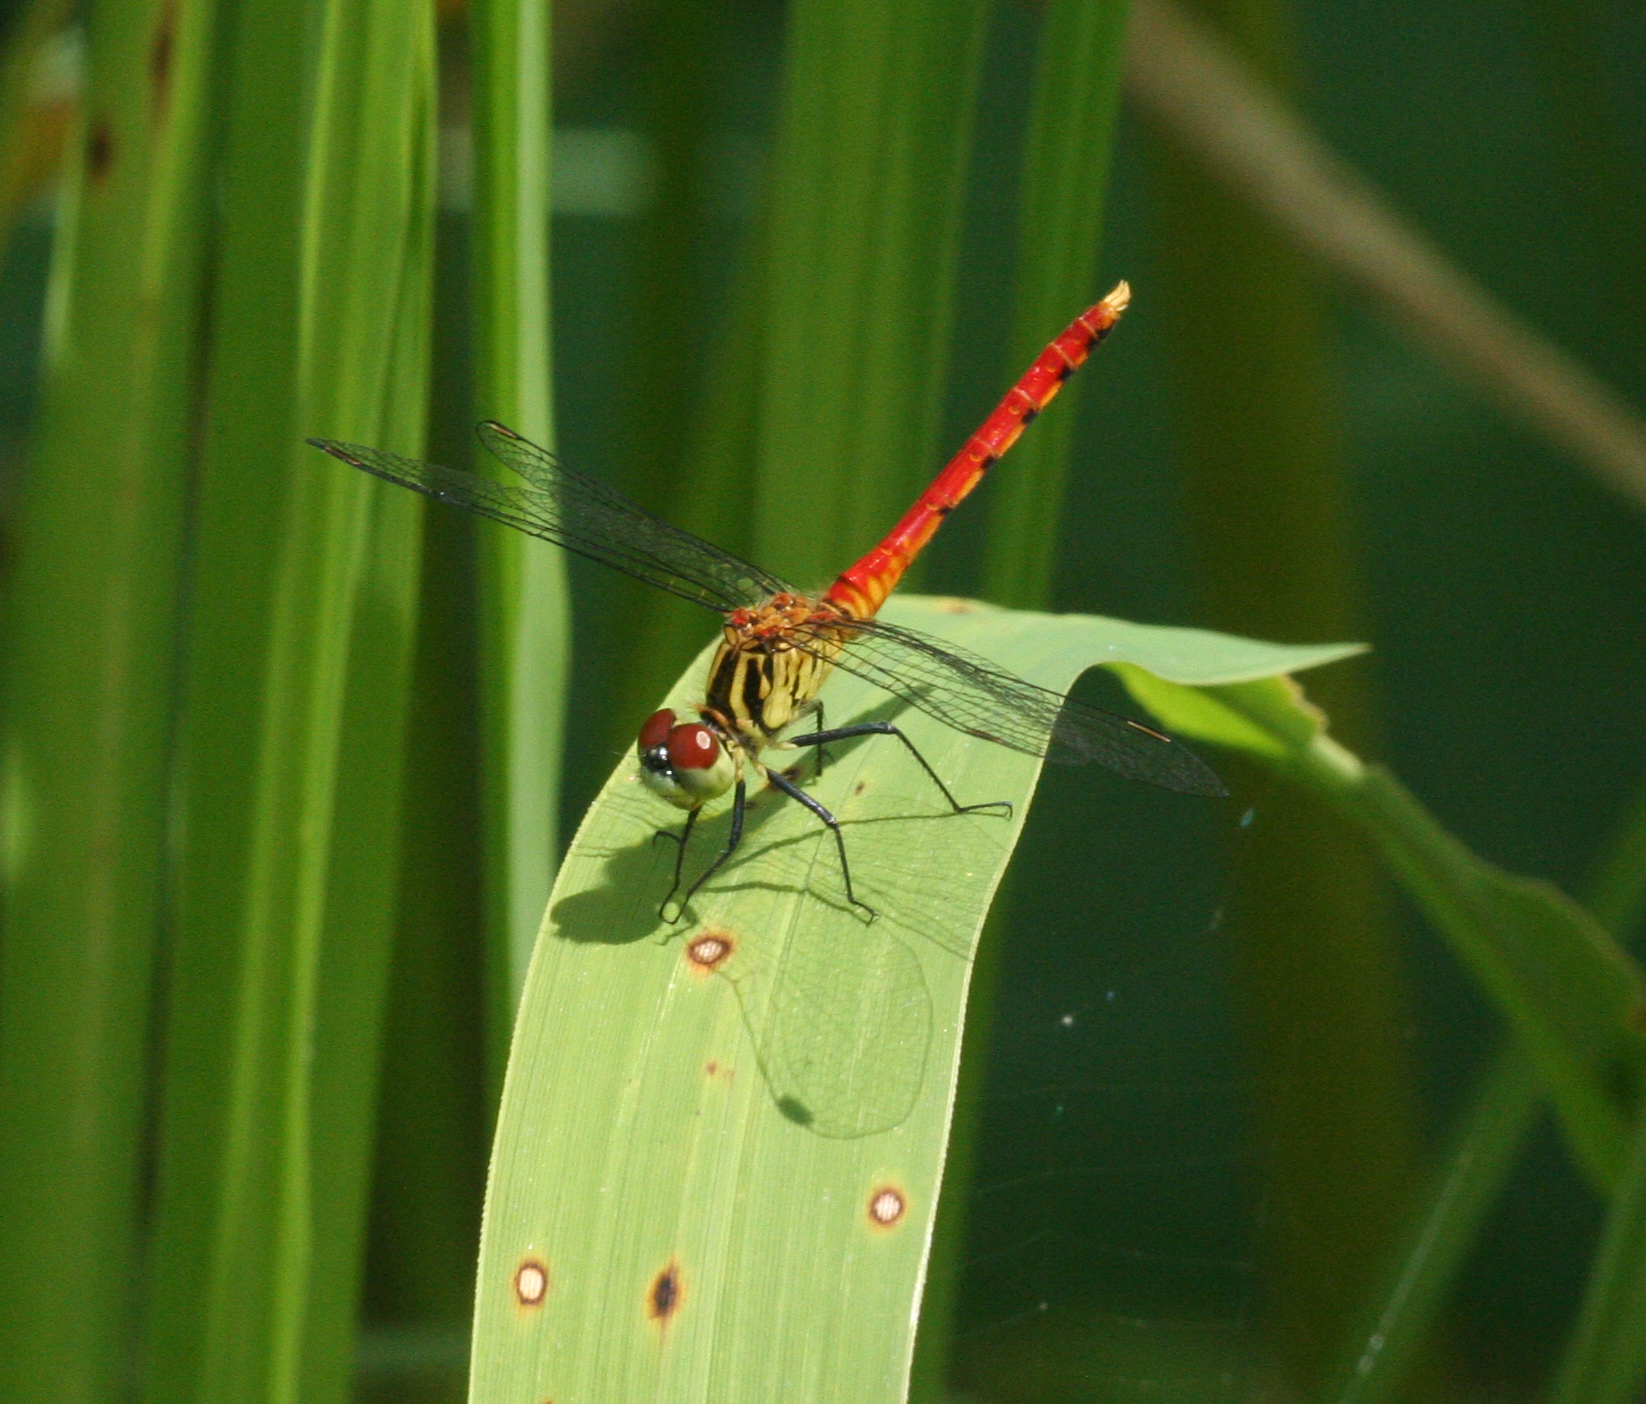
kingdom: Animalia
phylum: Arthropoda
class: Insecta
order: Odonata
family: Libellulidae
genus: Sympetrum
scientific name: Sympetrum kunckeli
